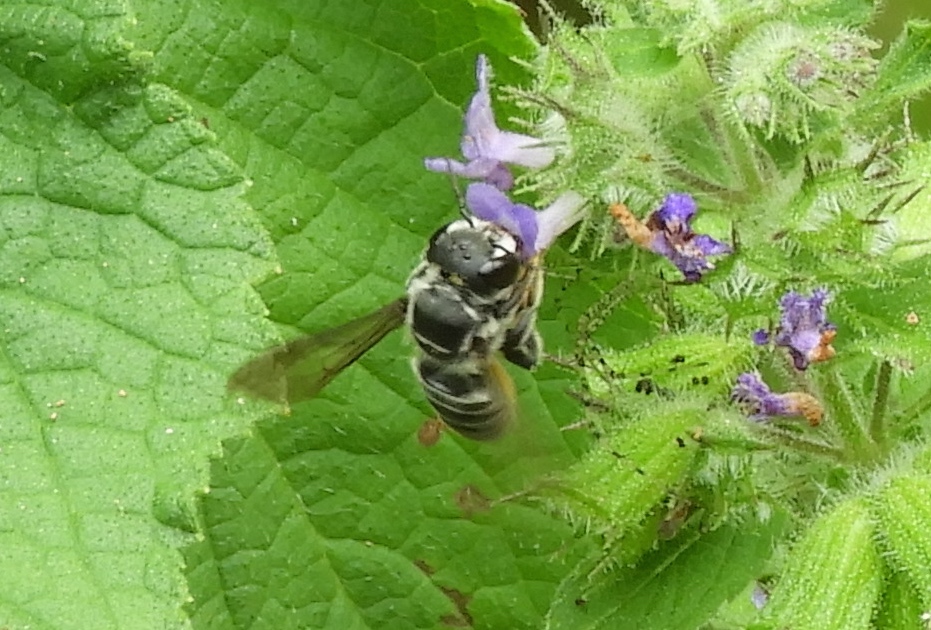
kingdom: Animalia
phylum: Arthropoda
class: Insecta
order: Hymenoptera
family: Megachilidae
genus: Megachile
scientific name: Megachile
